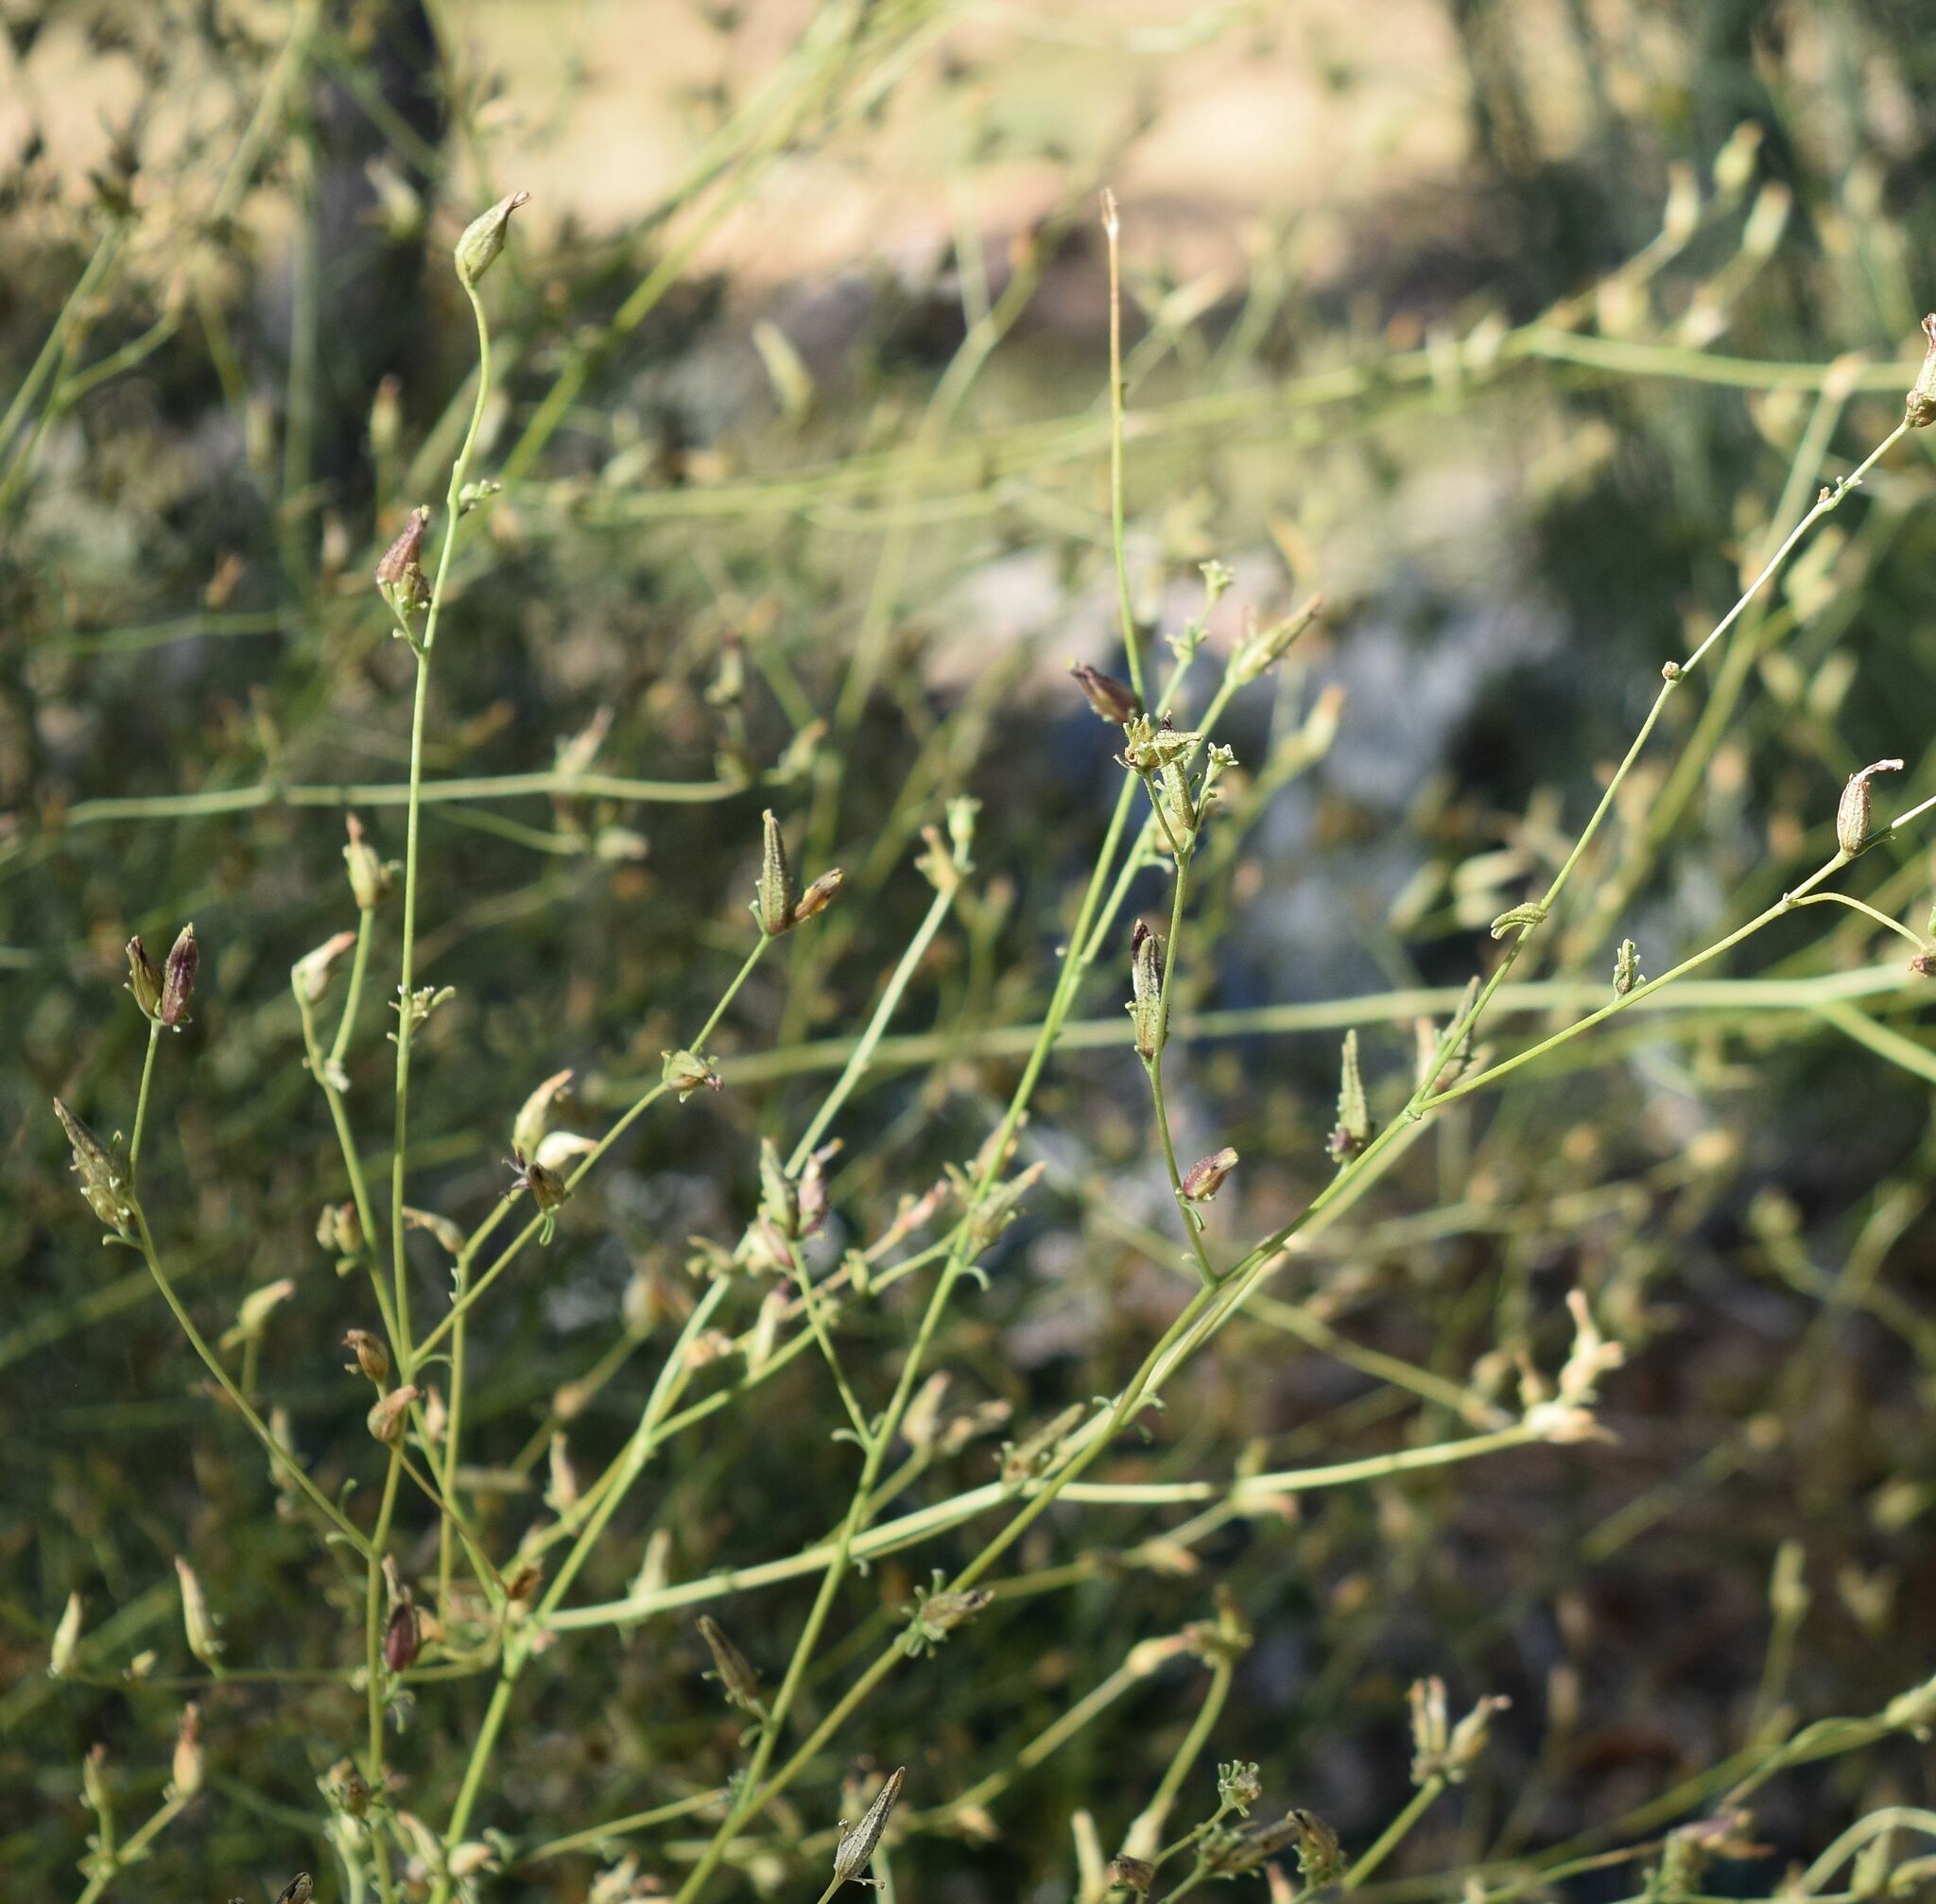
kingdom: Plantae
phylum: Tracheophyta
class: Magnoliopsida
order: Lamiales
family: Orobanchaceae
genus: Cordylanthus
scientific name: Cordylanthus nevinii
